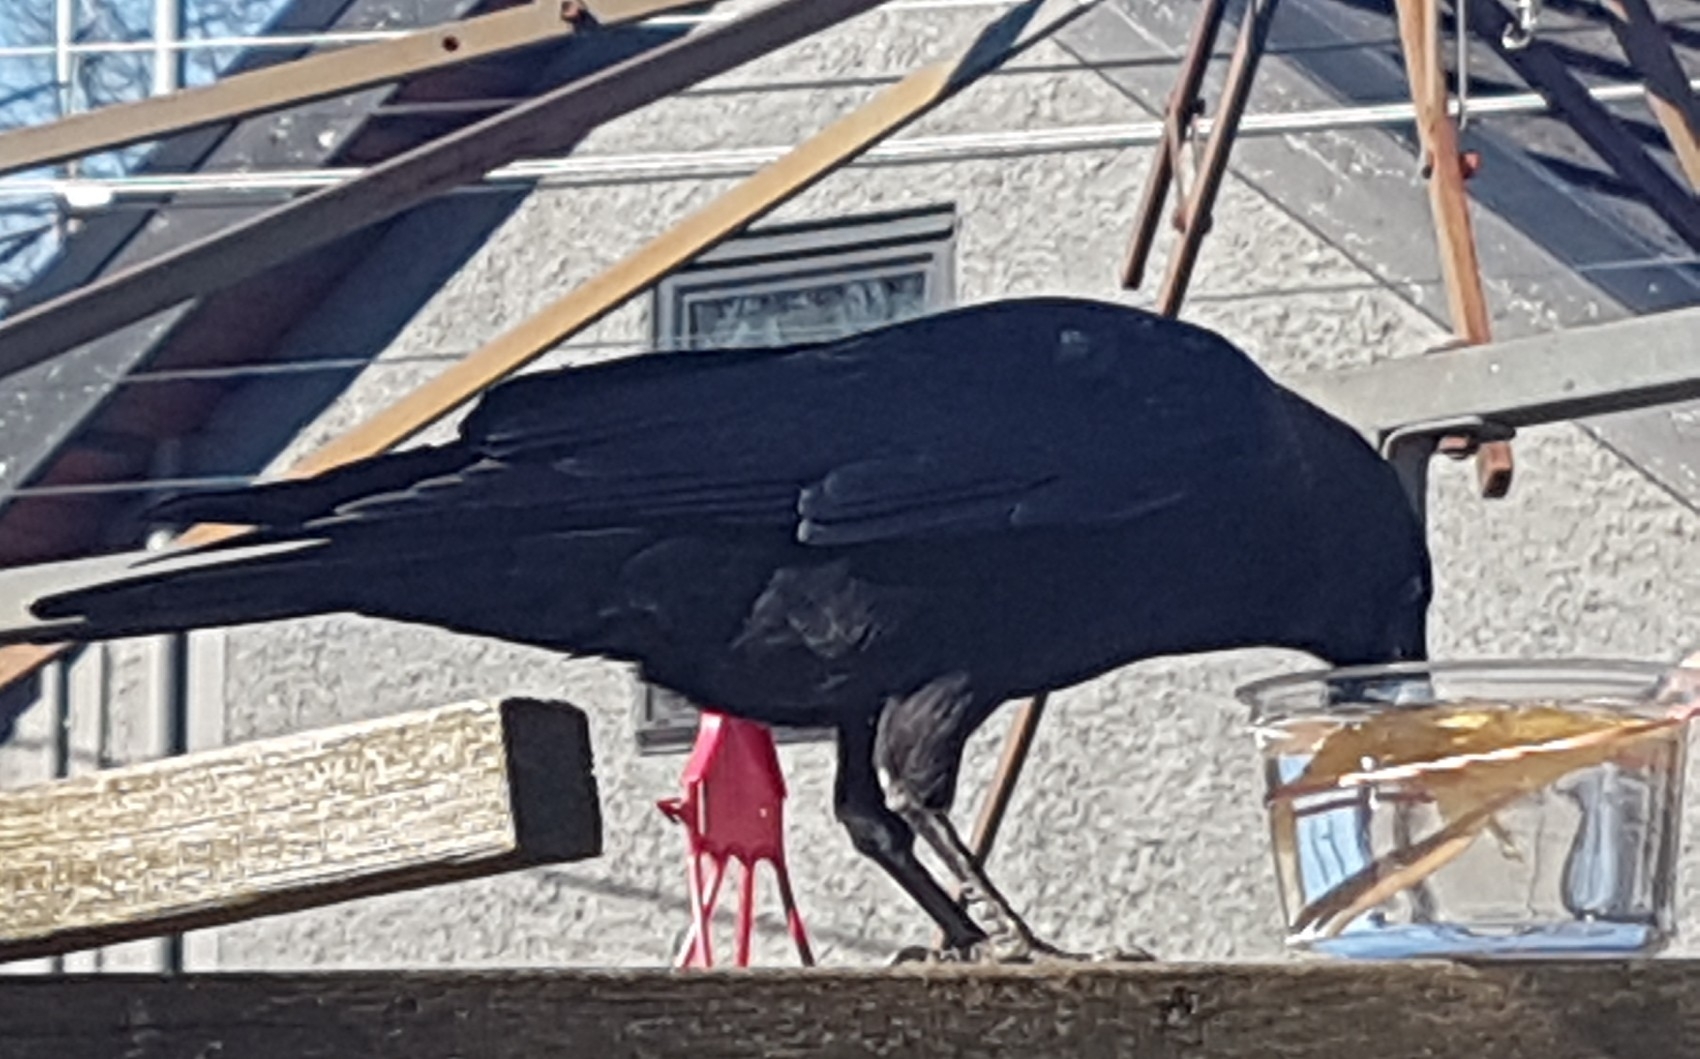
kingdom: Animalia
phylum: Chordata
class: Aves
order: Passeriformes
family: Corvidae
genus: Corvus
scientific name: Corvus brachyrhynchos
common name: American crow
